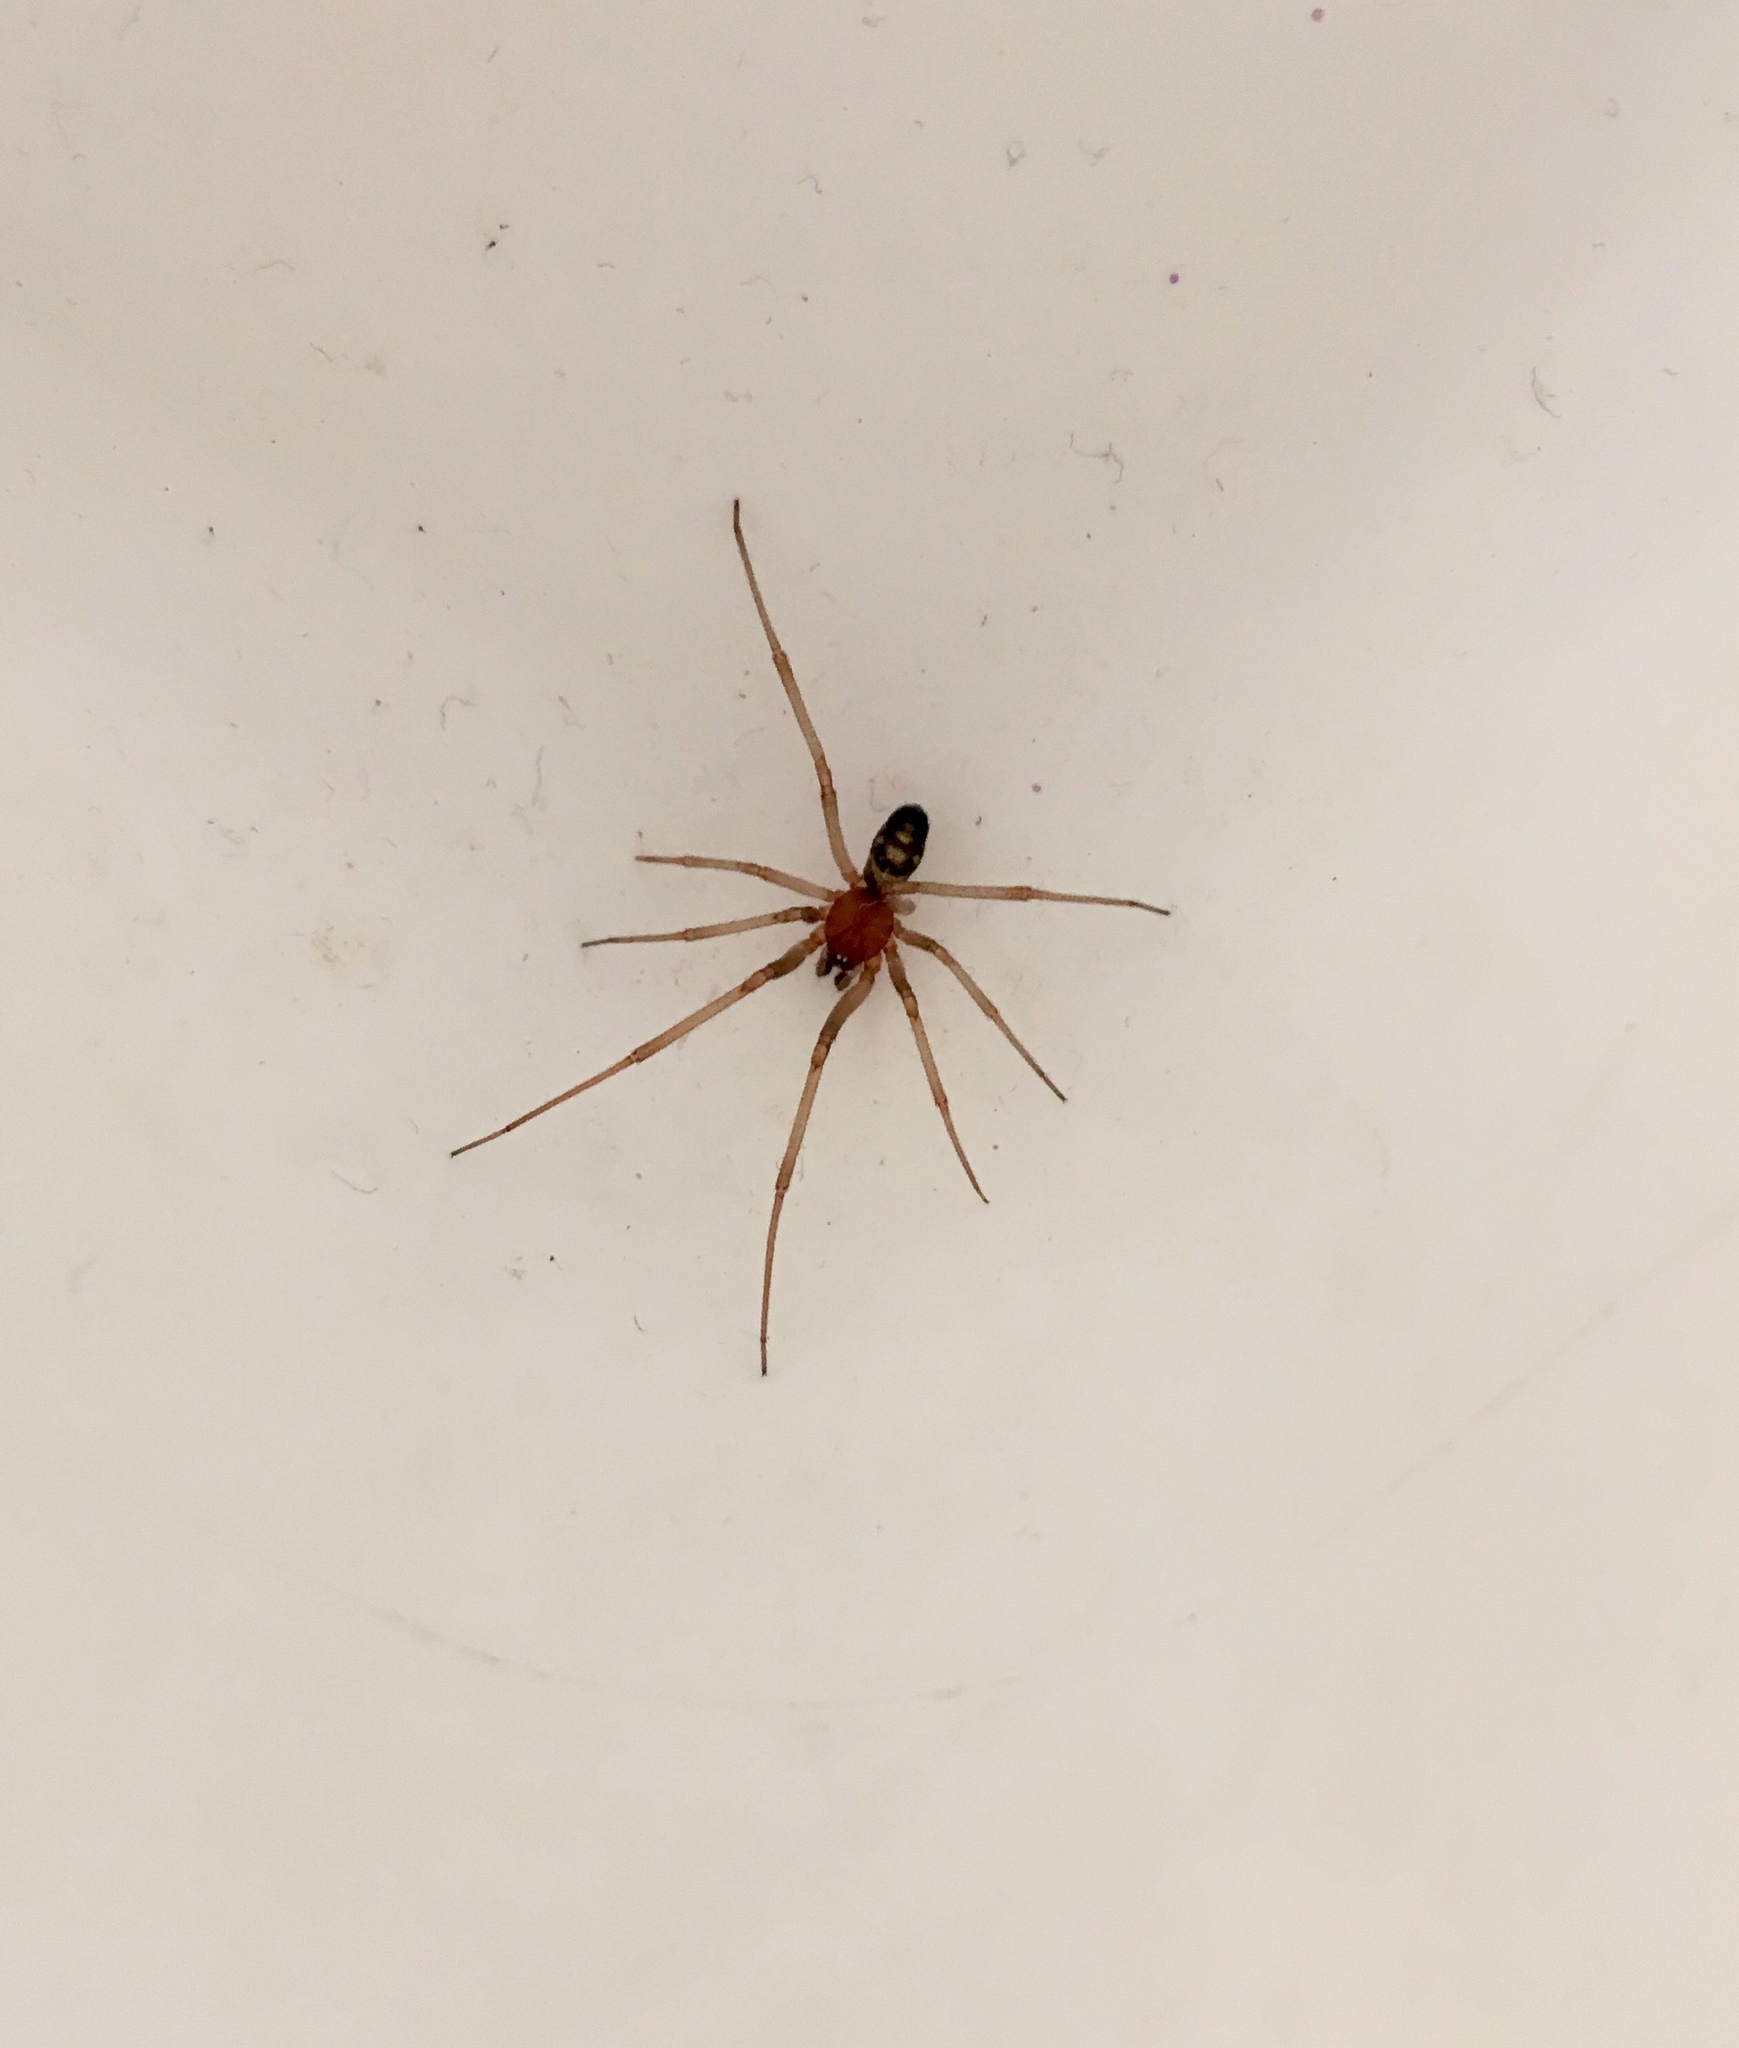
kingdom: Animalia
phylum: Arthropoda
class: Arachnida
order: Araneae
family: Theridiidae
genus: Steatoda
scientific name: Steatoda grossa
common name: False black widow
